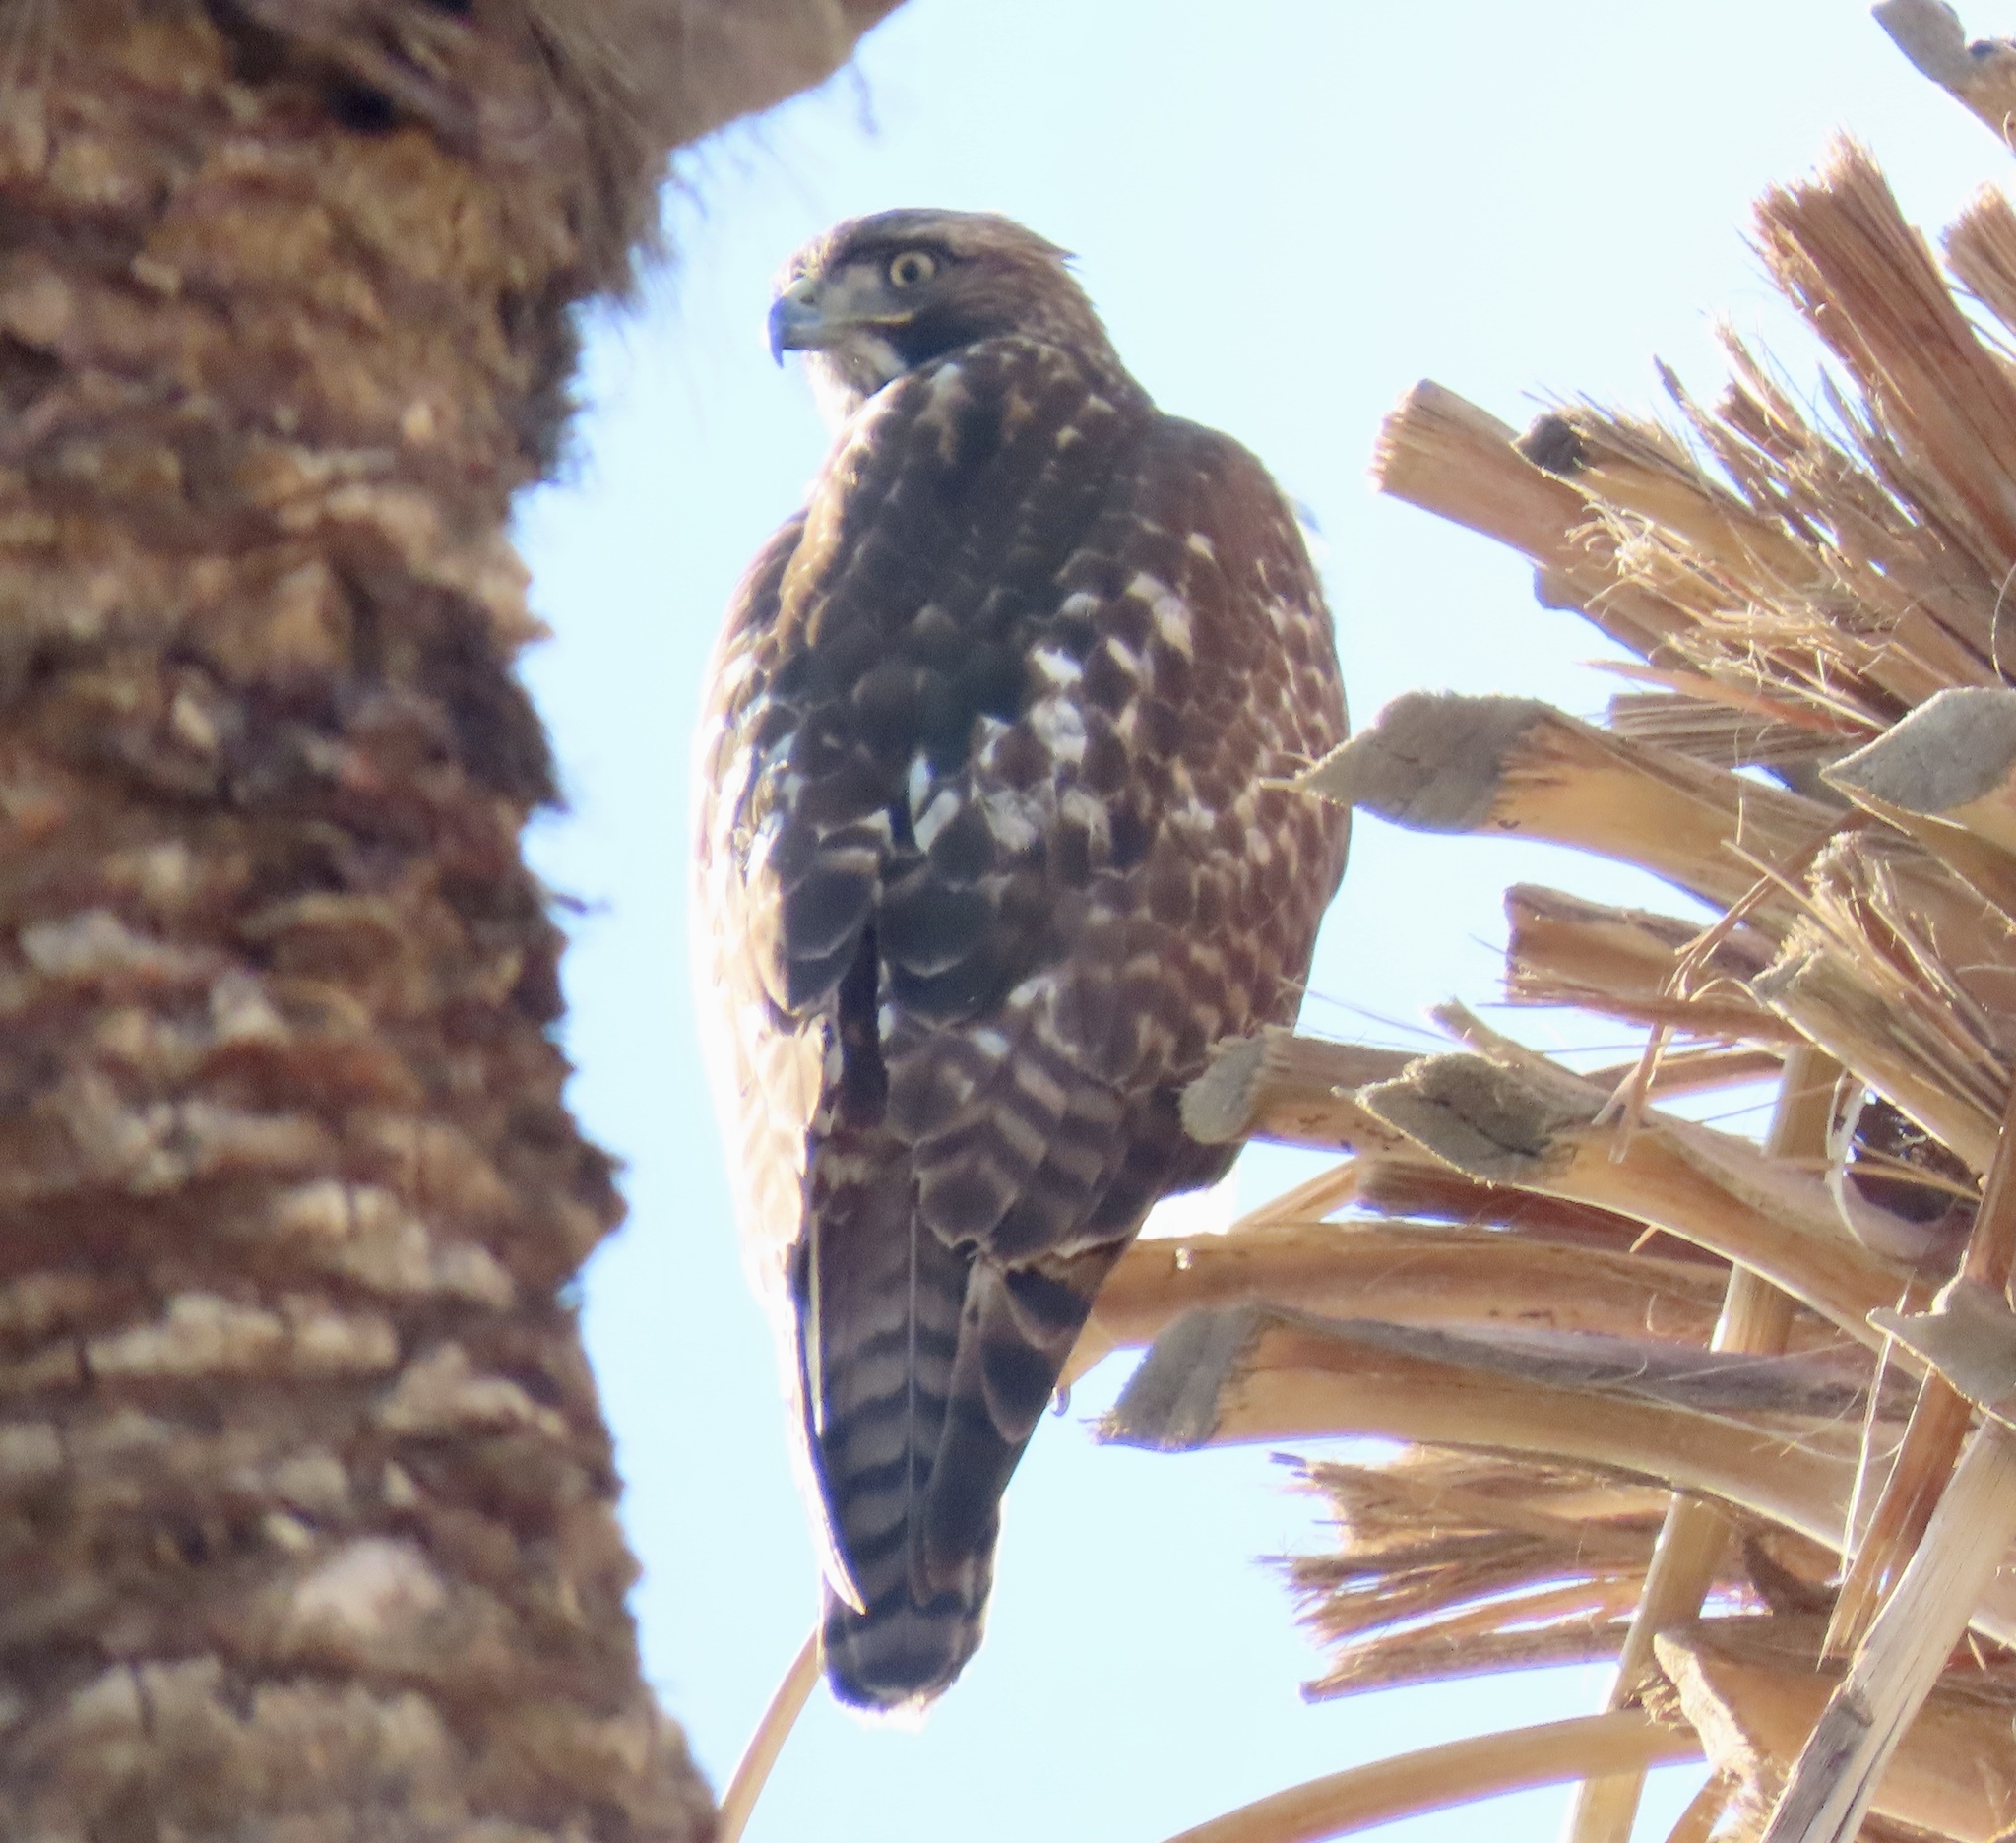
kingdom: Animalia
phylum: Chordata
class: Aves
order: Accipitriformes
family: Accipitridae
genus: Buteo
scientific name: Buteo jamaicensis
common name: Red-tailed hawk
